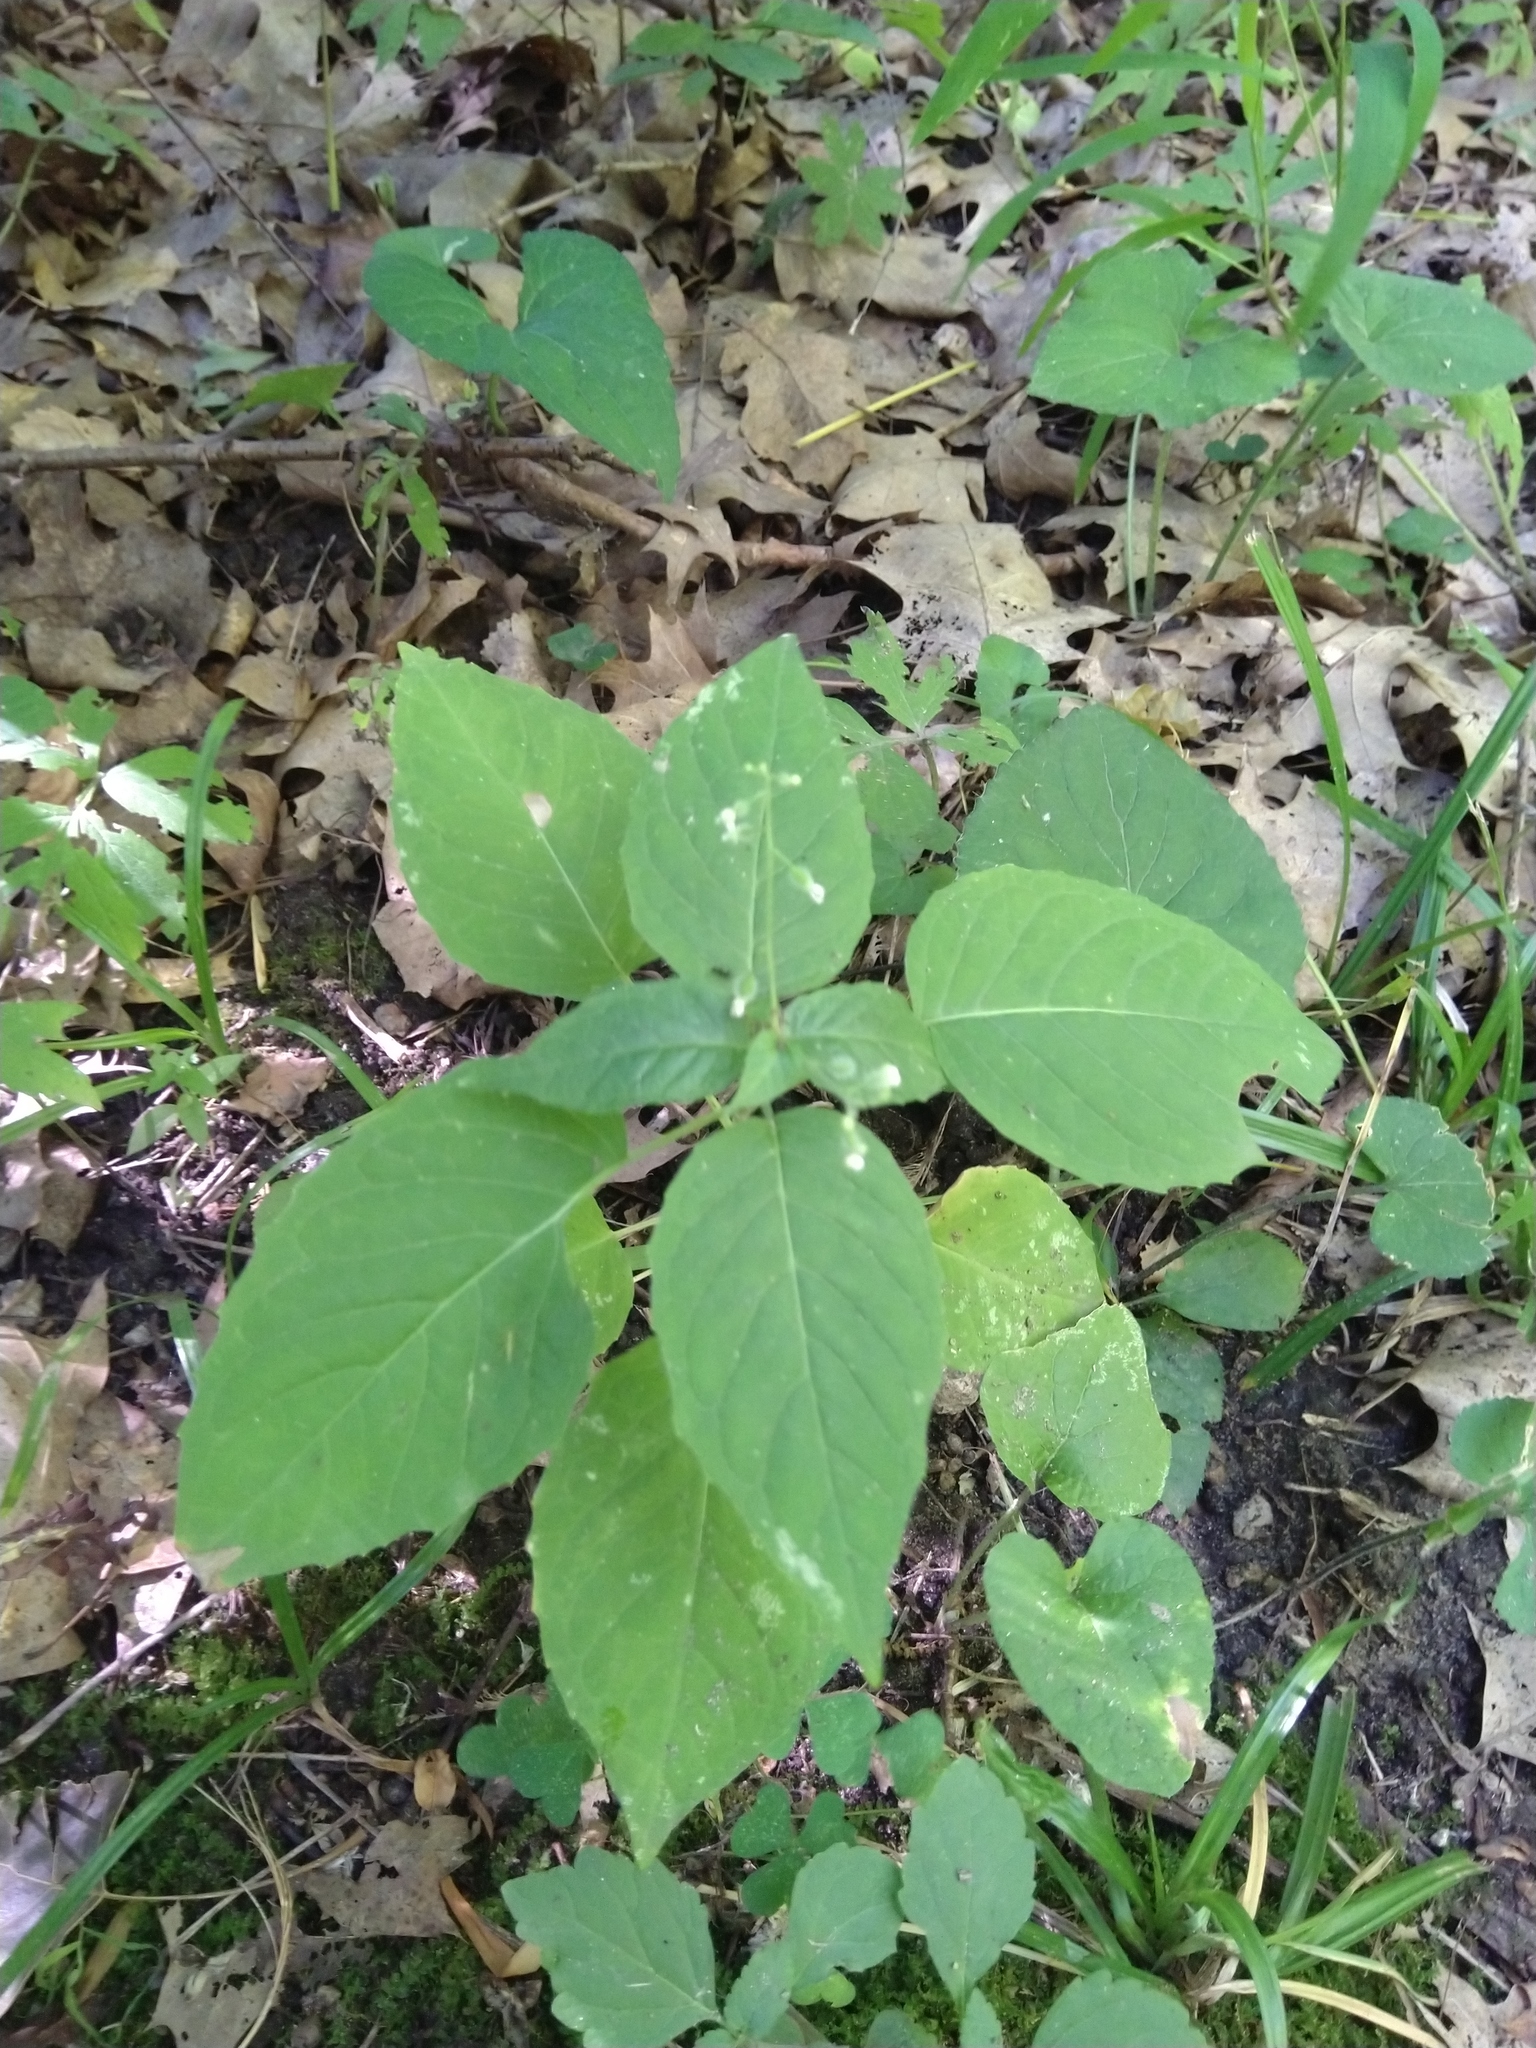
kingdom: Plantae
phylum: Tracheophyta
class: Magnoliopsida
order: Myrtales
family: Onagraceae
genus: Circaea
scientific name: Circaea canadensis
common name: Broad-leaved enchanter's nightshade
